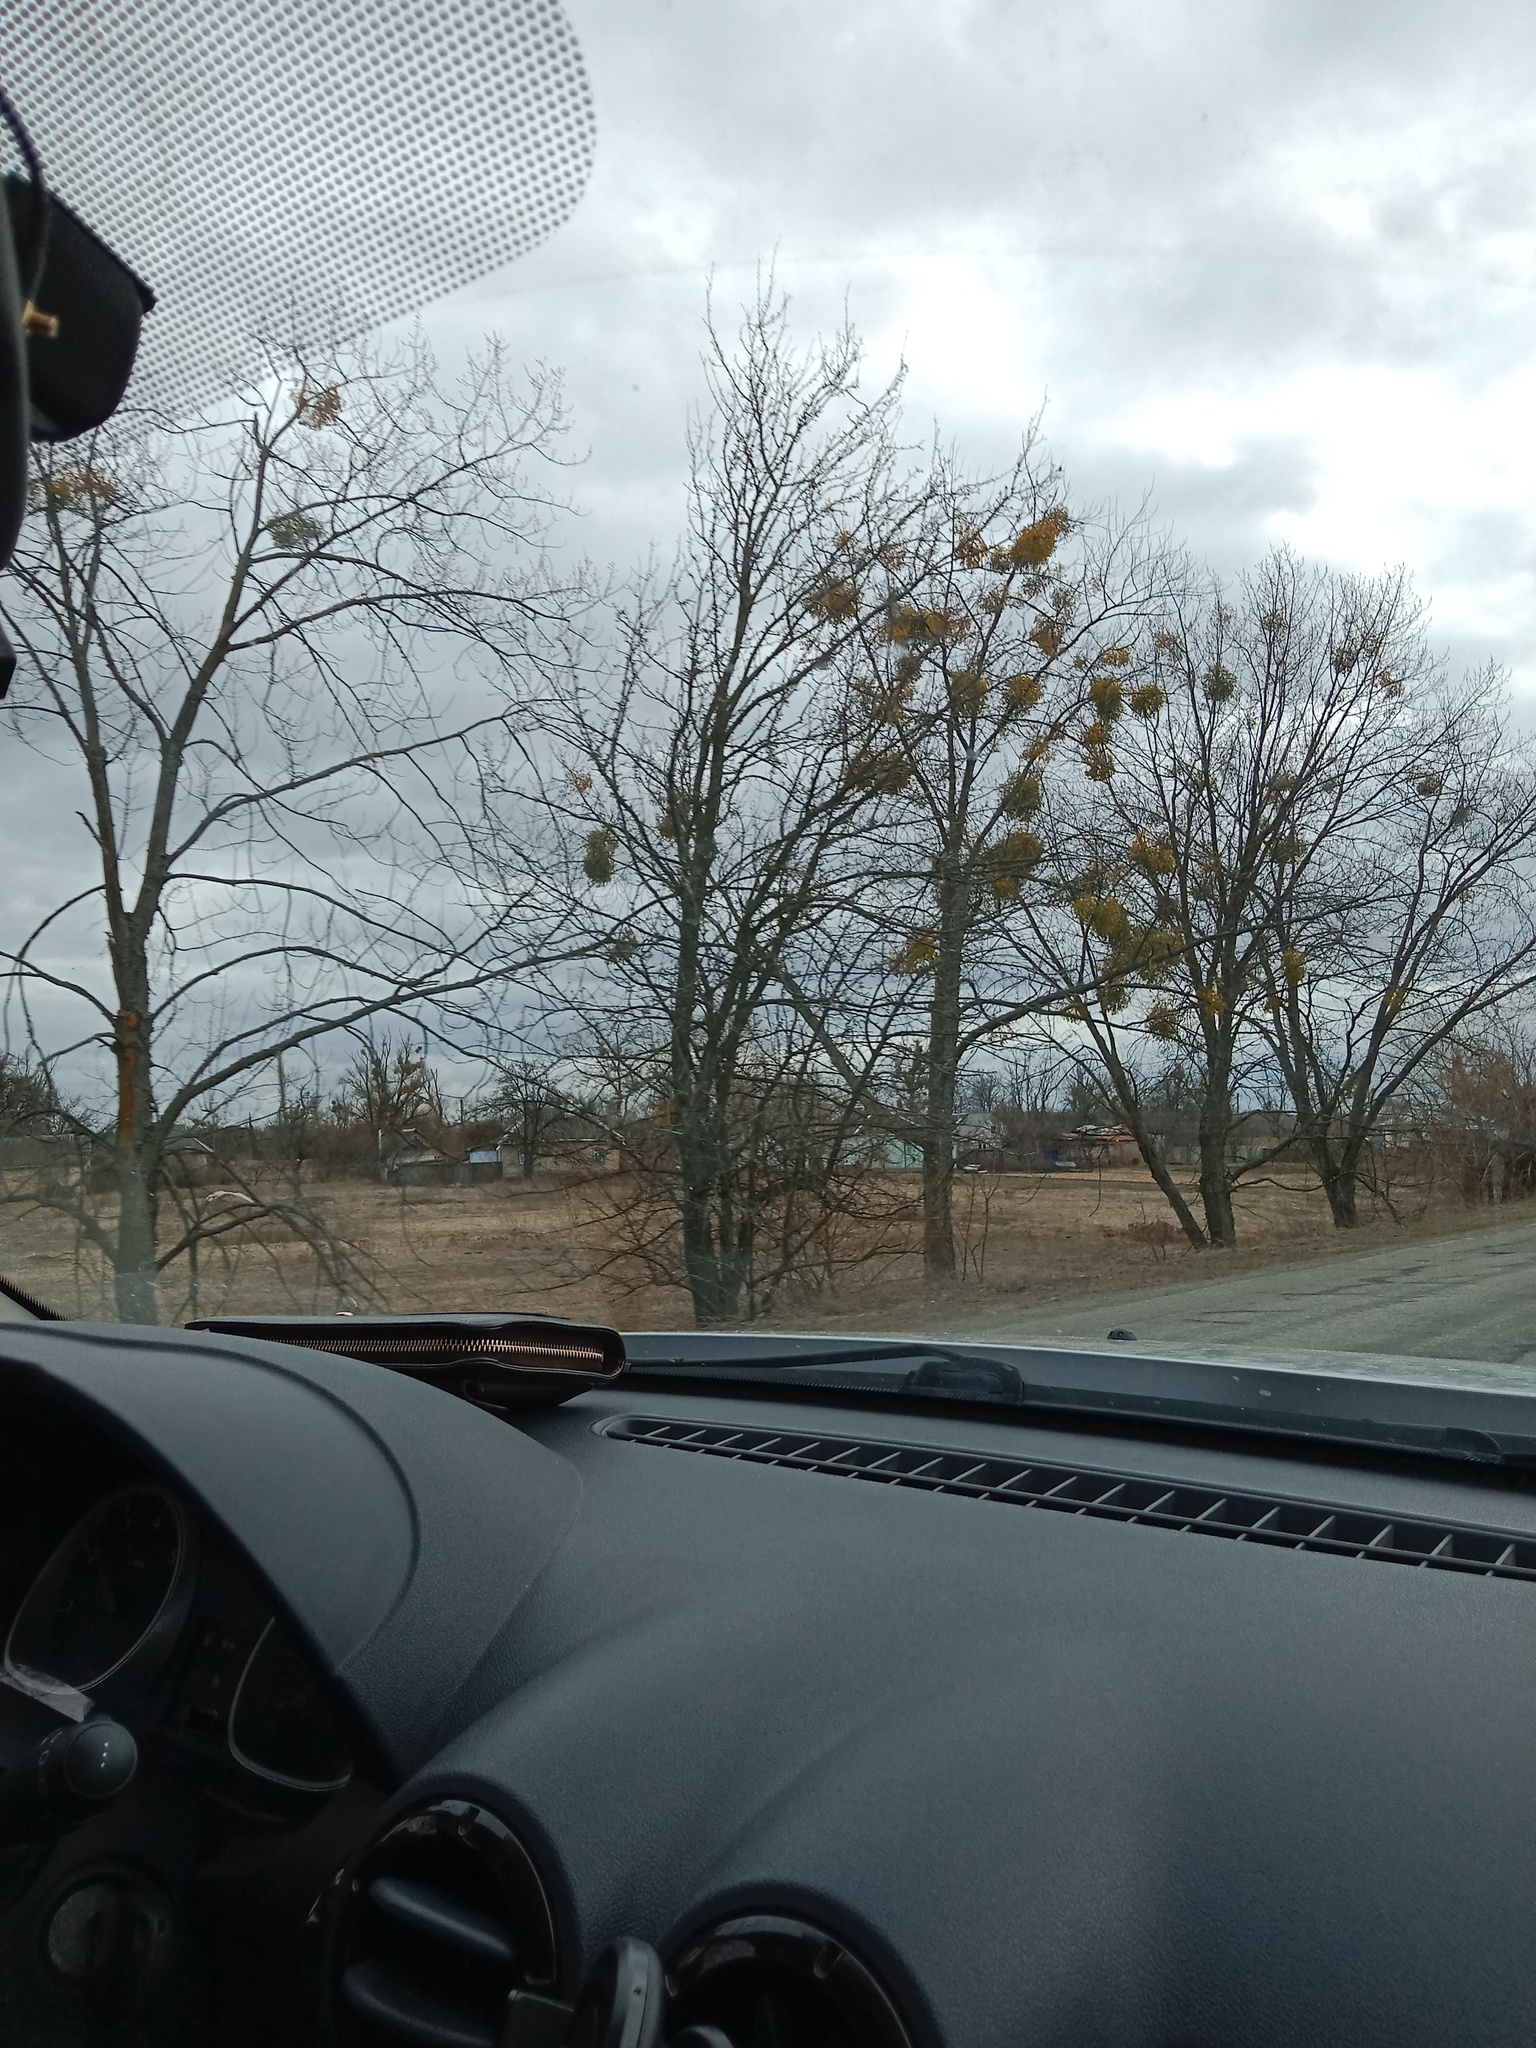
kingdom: Plantae
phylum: Tracheophyta
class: Magnoliopsida
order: Santalales
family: Viscaceae
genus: Viscum
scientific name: Viscum album
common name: Mistletoe
